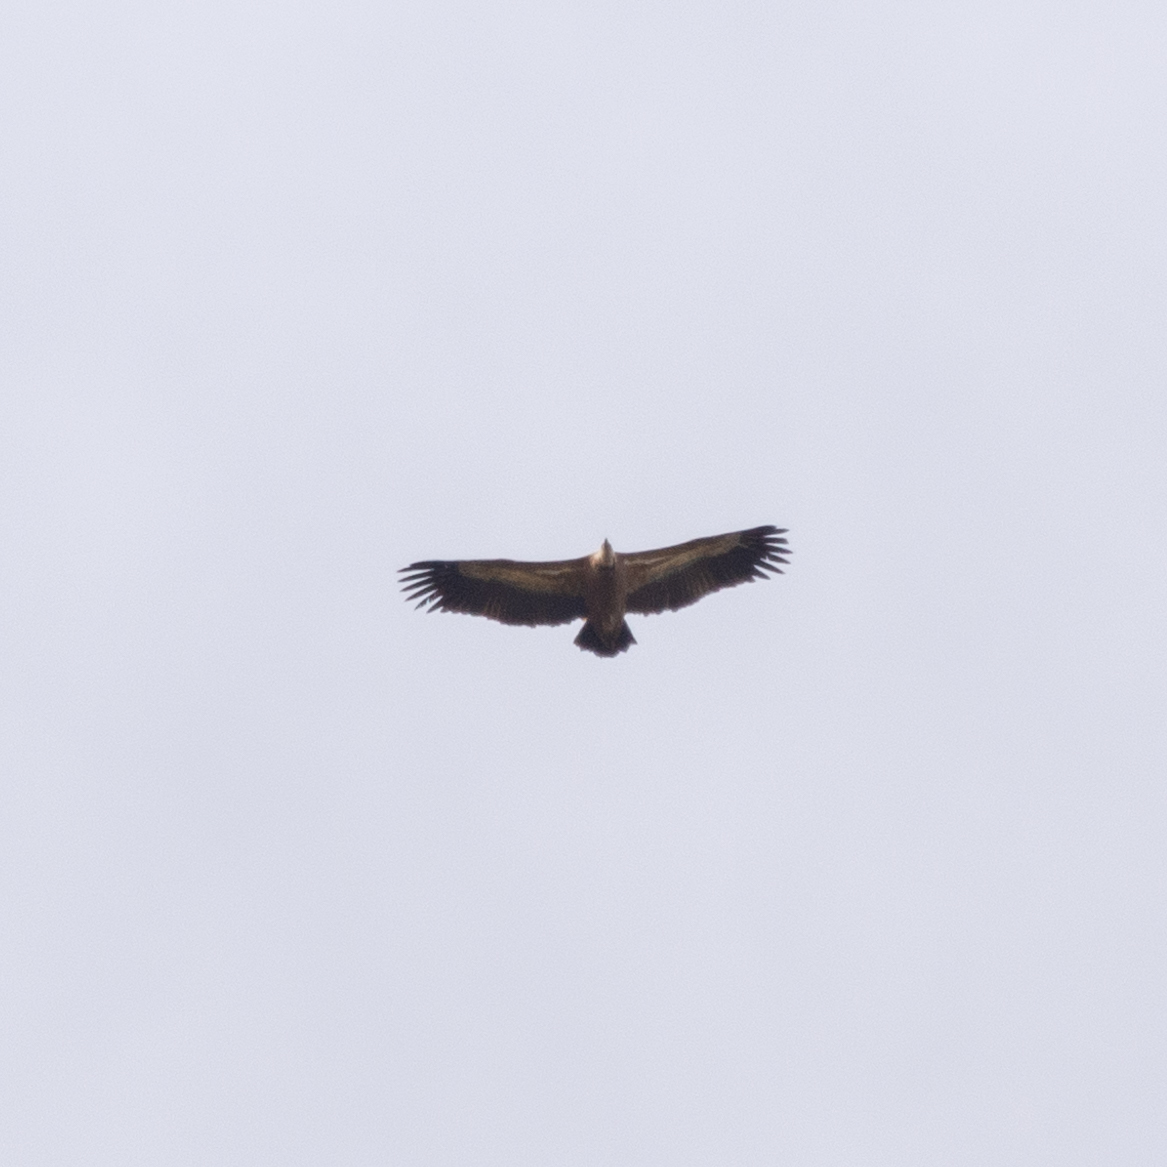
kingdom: Animalia
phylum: Chordata
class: Aves
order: Accipitriformes
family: Accipitridae
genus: Gyps
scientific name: Gyps fulvus
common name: Griffon vulture
